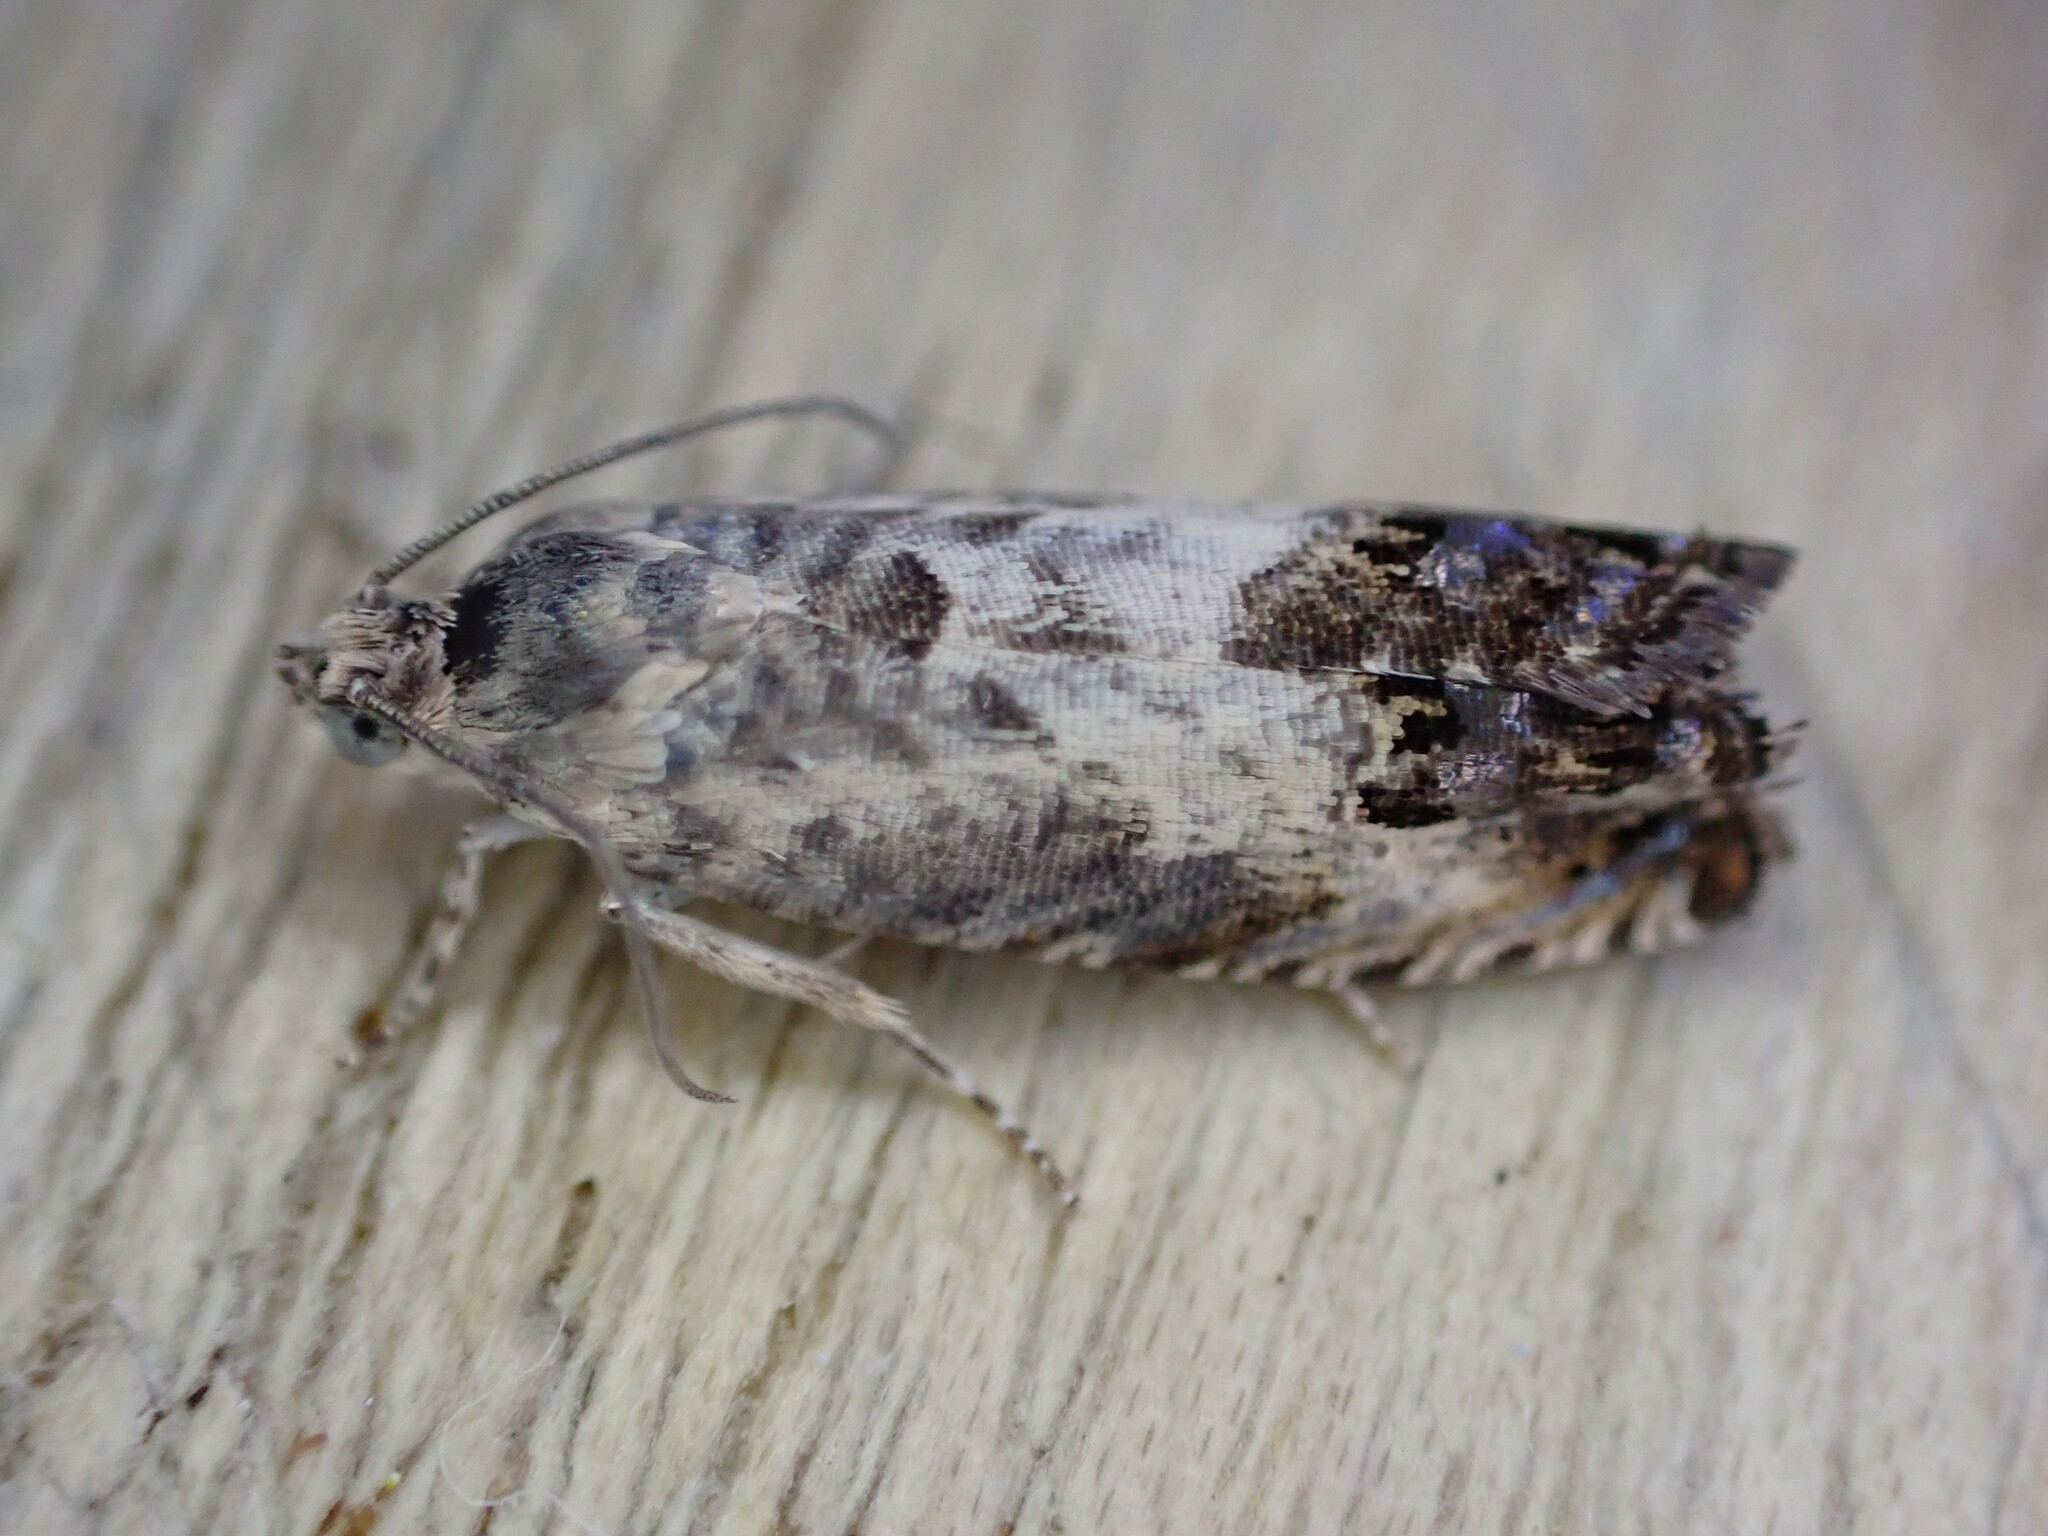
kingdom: Animalia
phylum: Arthropoda
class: Insecta
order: Lepidoptera
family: Tortricidae
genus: Pammene
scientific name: Pammene fasciana
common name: Acorn piercer
